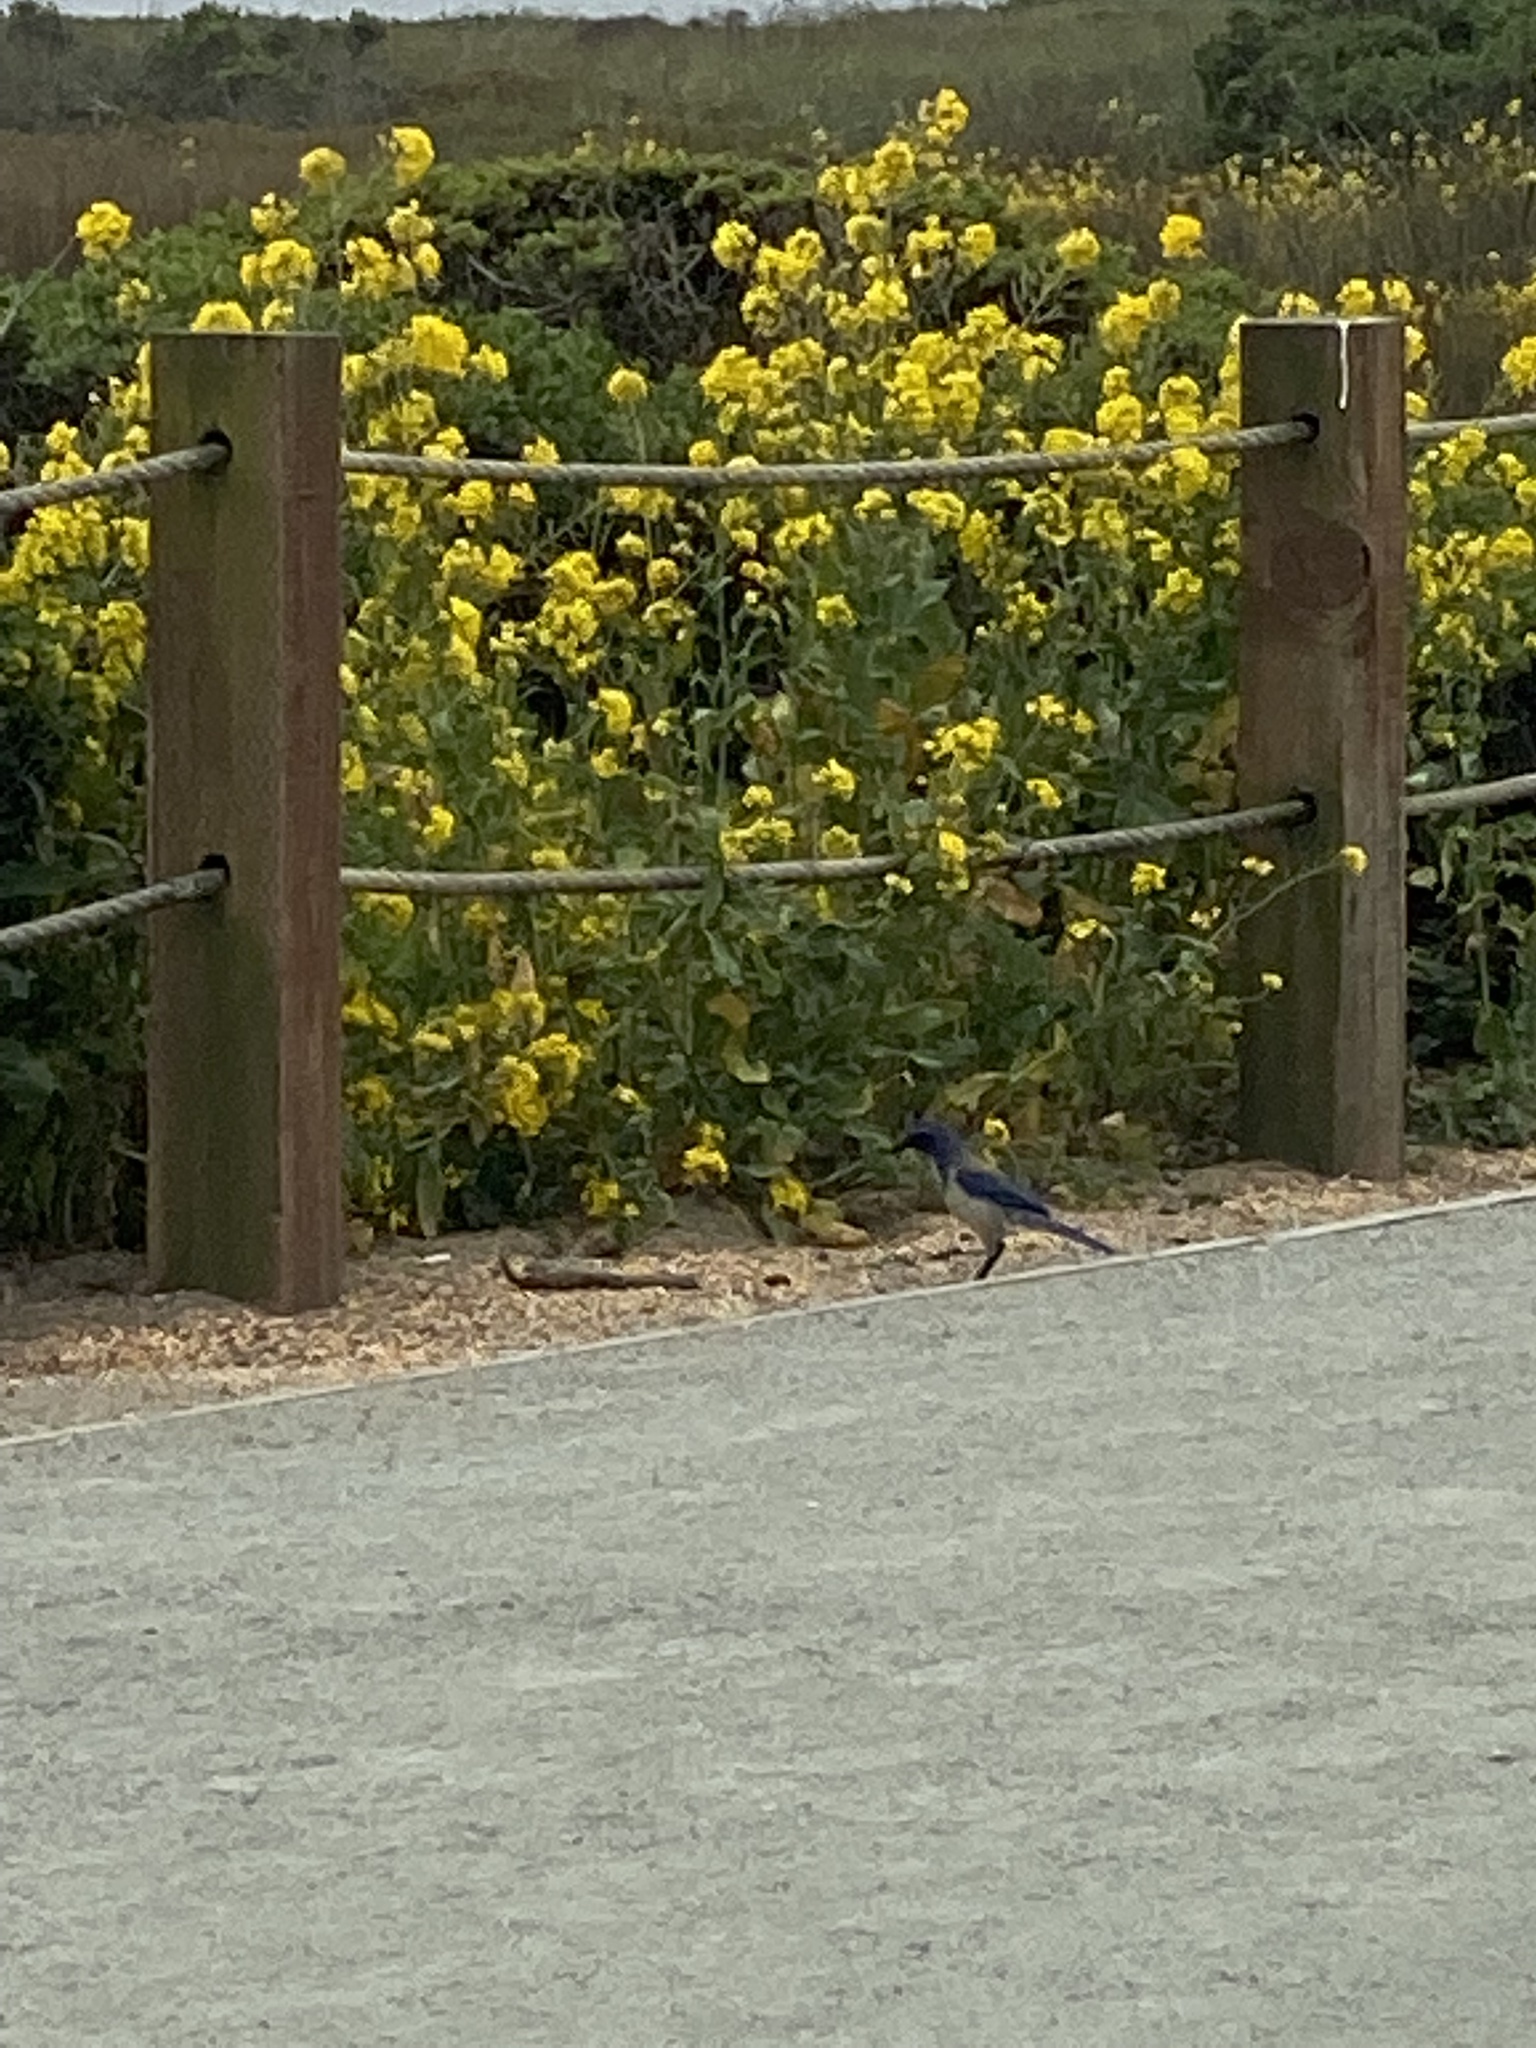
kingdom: Animalia
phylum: Chordata
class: Aves
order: Passeriformes
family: Corvidae
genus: Aphelocoma
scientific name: Aphelocoma californica
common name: California scrub-jay
